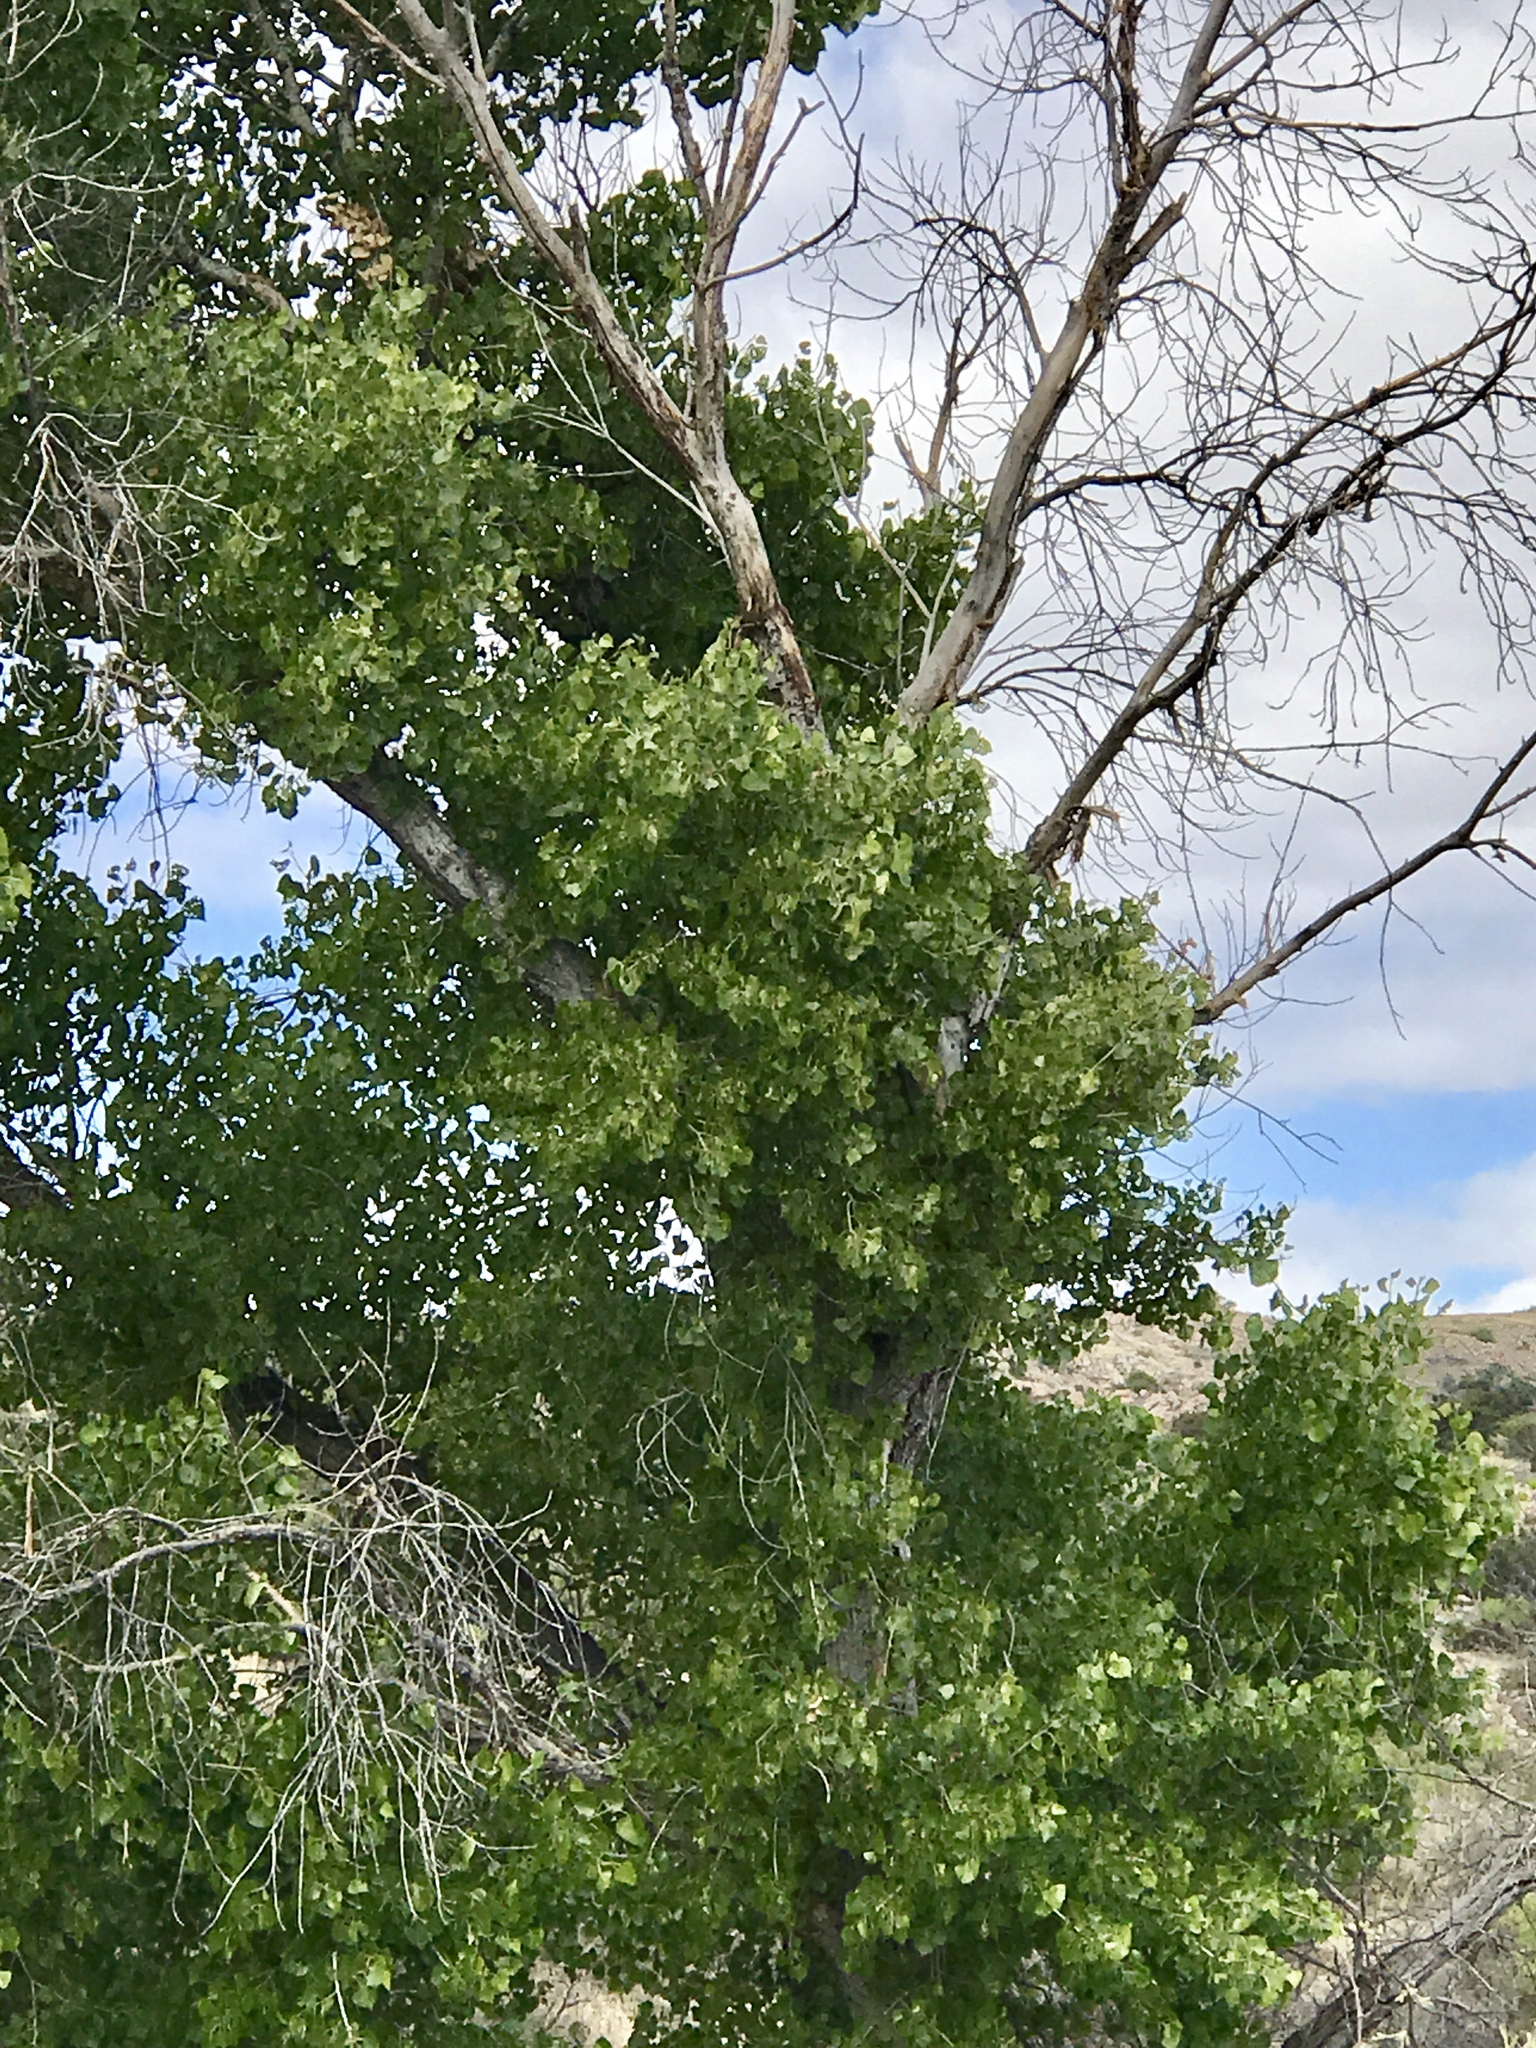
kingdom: Plantae
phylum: Tracheophyta
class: Magnoliopsida
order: Malpighiales
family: Salicaceae
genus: Populus
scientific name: Populus fremontii
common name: Fremont's cottonwood
